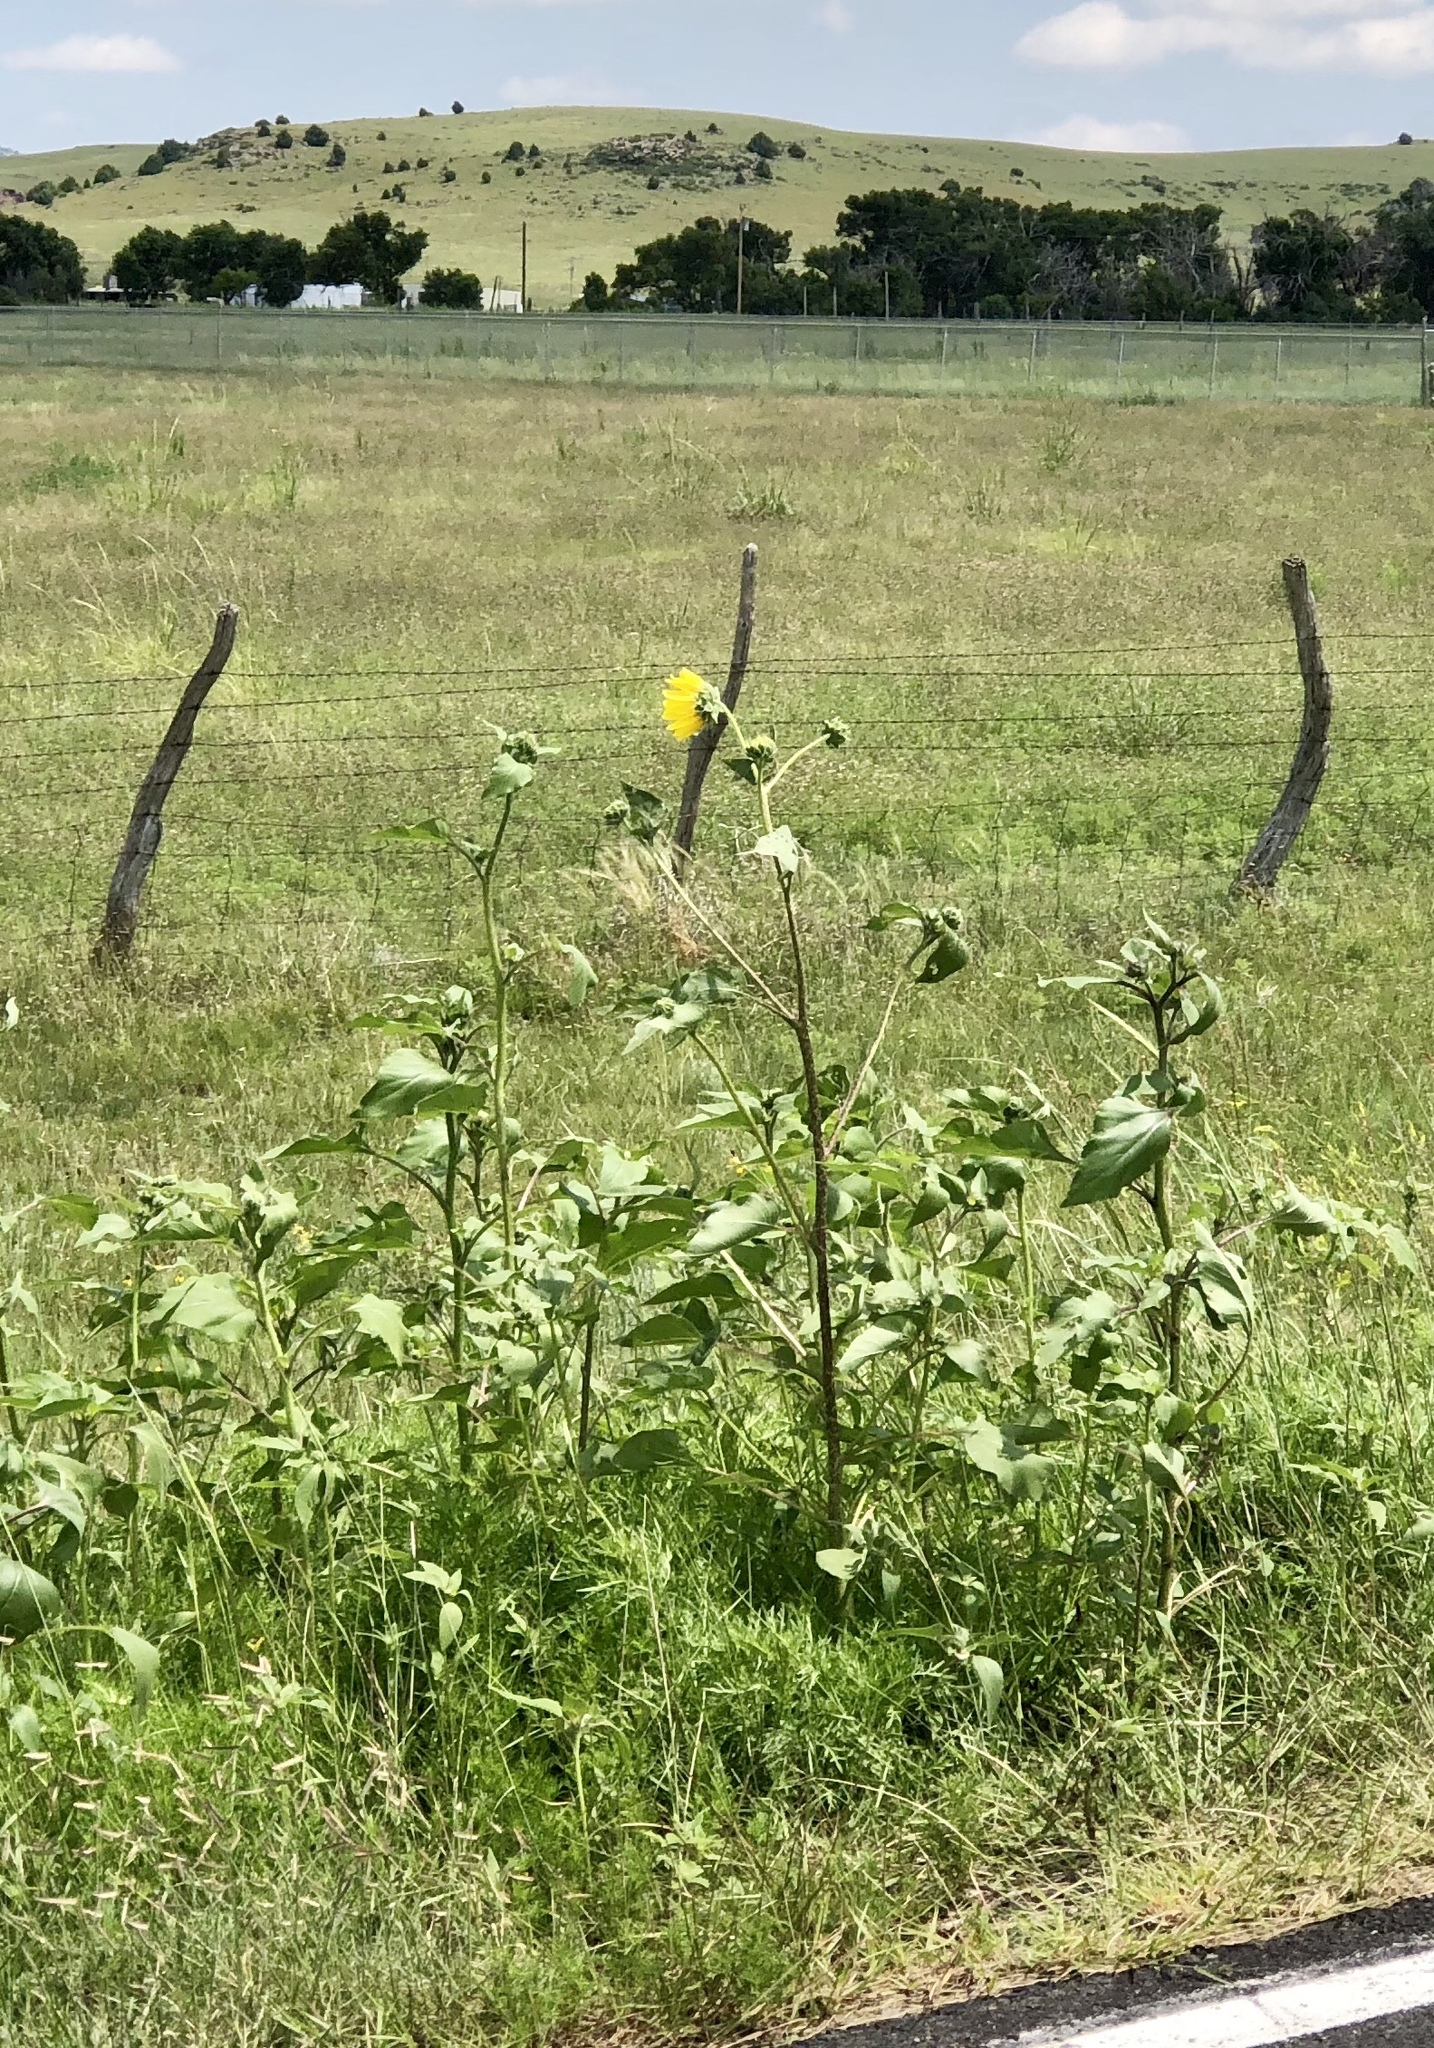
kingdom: Plantae
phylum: Tracheophyta
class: Magnoliopsida
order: Asterales
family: Asteraceae
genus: Helianthus
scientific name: Helianthus annuus
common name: Sunflower
